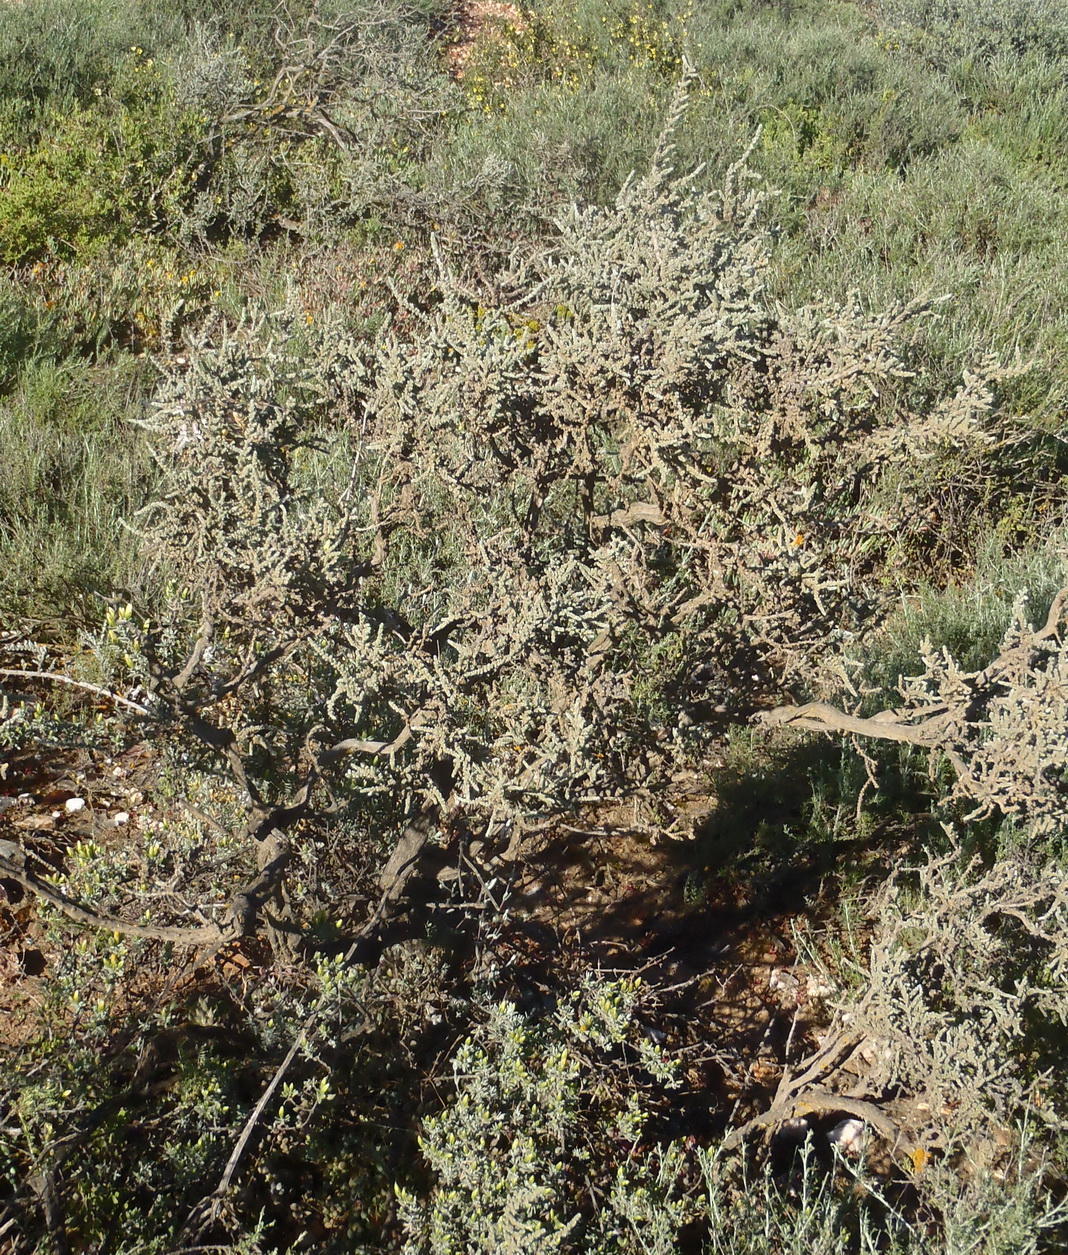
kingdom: Plantae
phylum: Tracheophyta
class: Magnoliopsida
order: Caryophyllales
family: Amaranthaceae
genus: Caroxylon
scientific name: Caroxylon aphyllum
